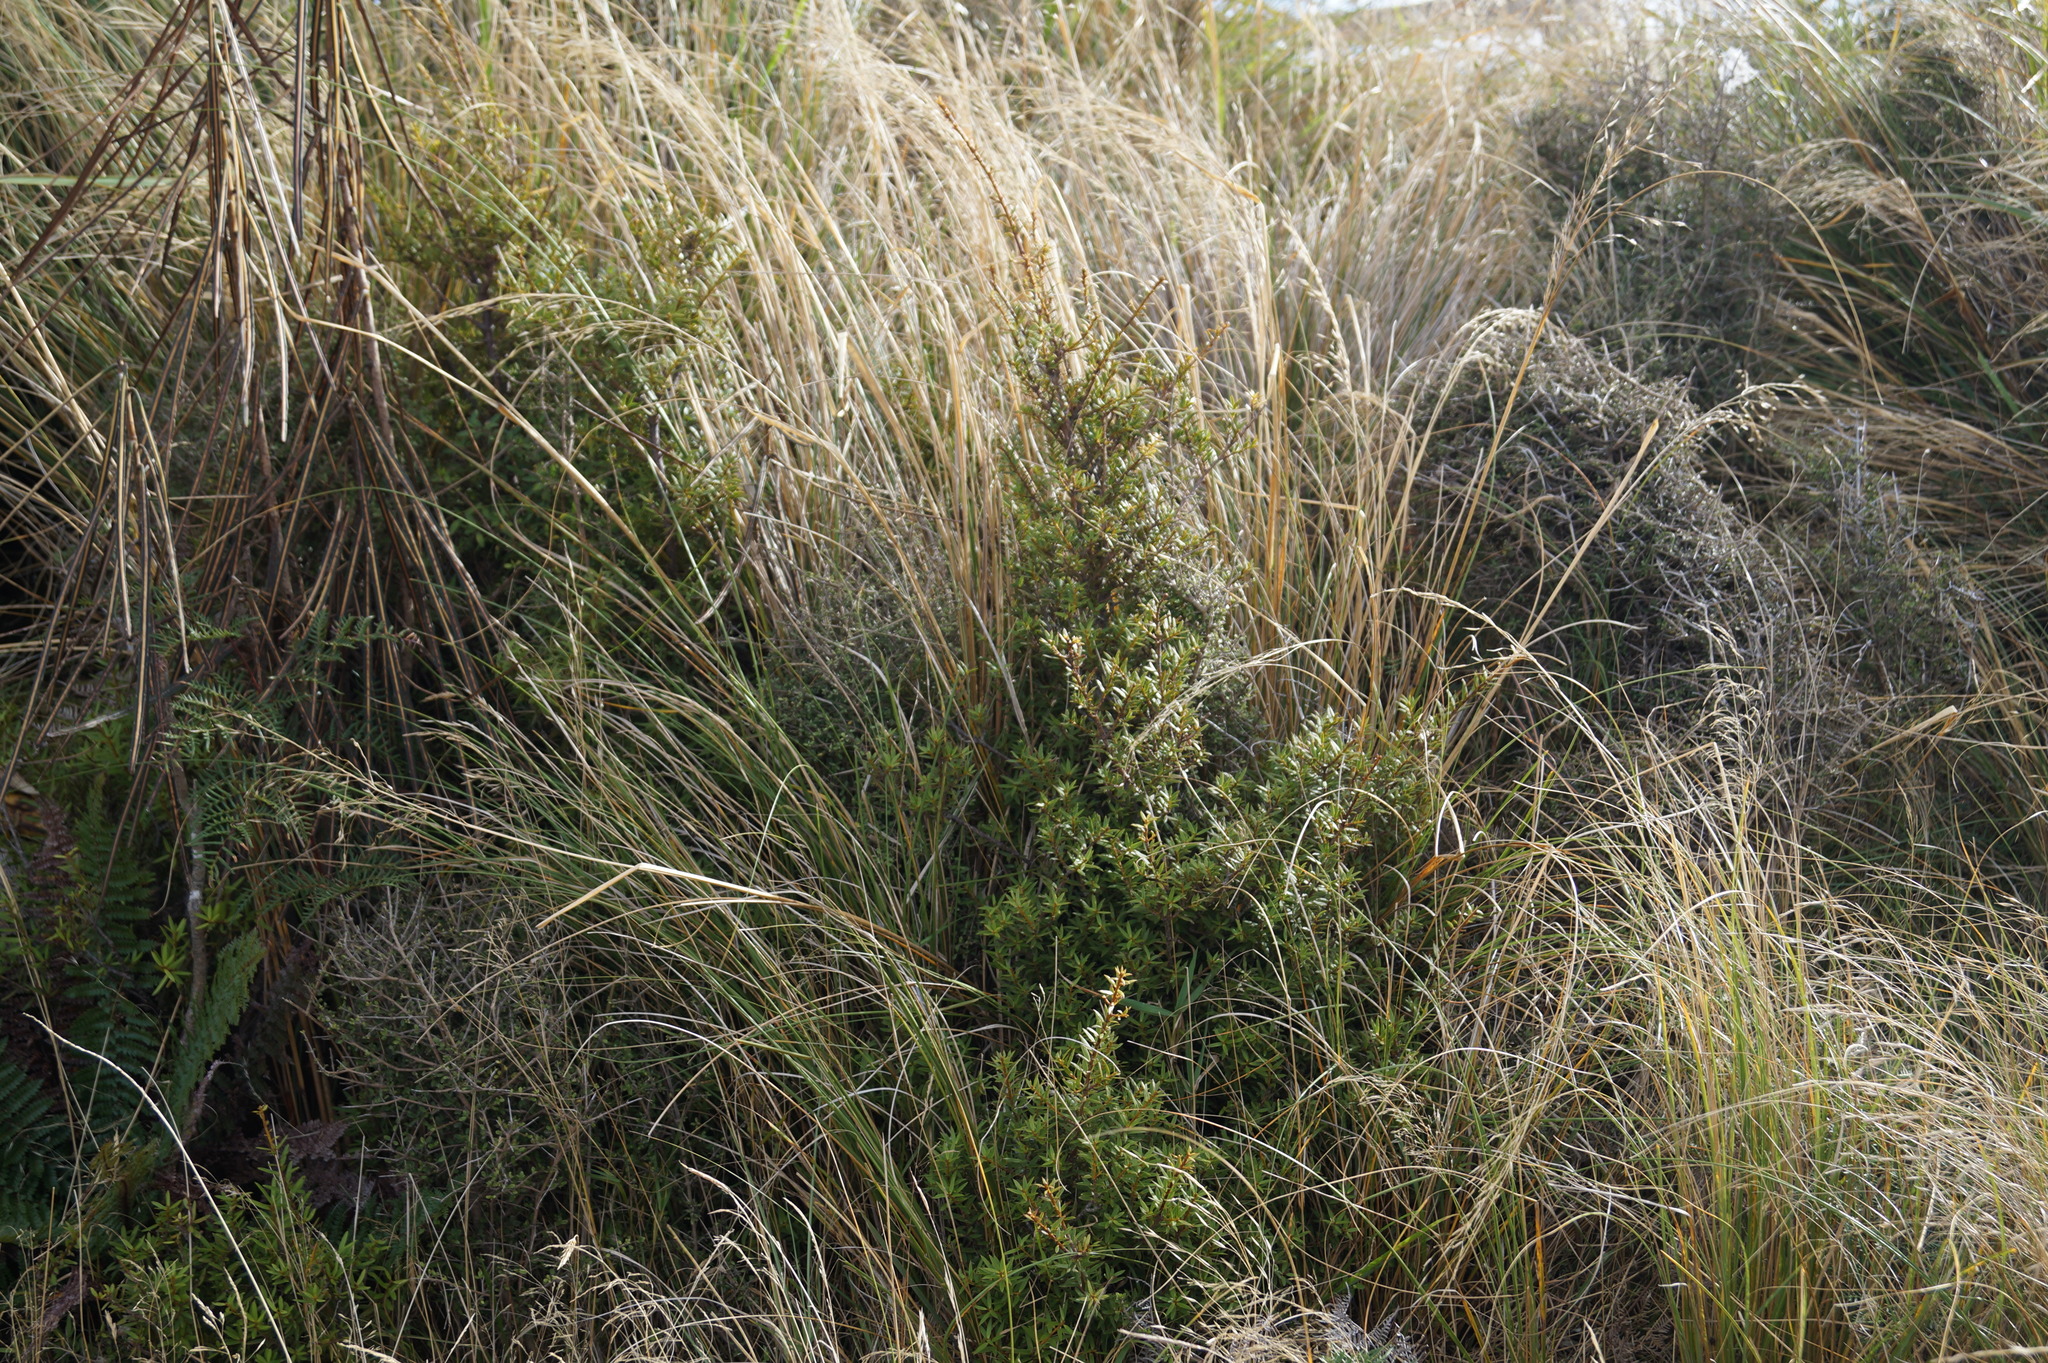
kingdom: Plantae
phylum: Tracheophyta
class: Pinopsida
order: Pinales
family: Podocarpaceae
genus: Podocarpus
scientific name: Podocarpus laetus
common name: Hall's totara
